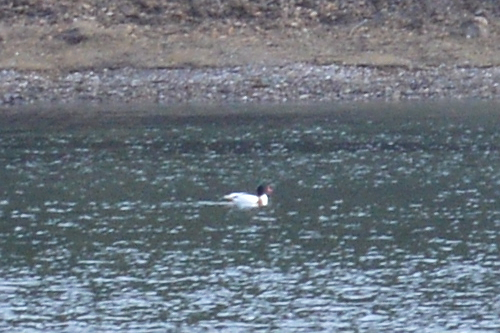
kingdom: Animalia
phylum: Chordata
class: Aves
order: Anseriformes
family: Anatidae
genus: Tadorna
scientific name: Tadorna tadorna
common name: Common shelduck
